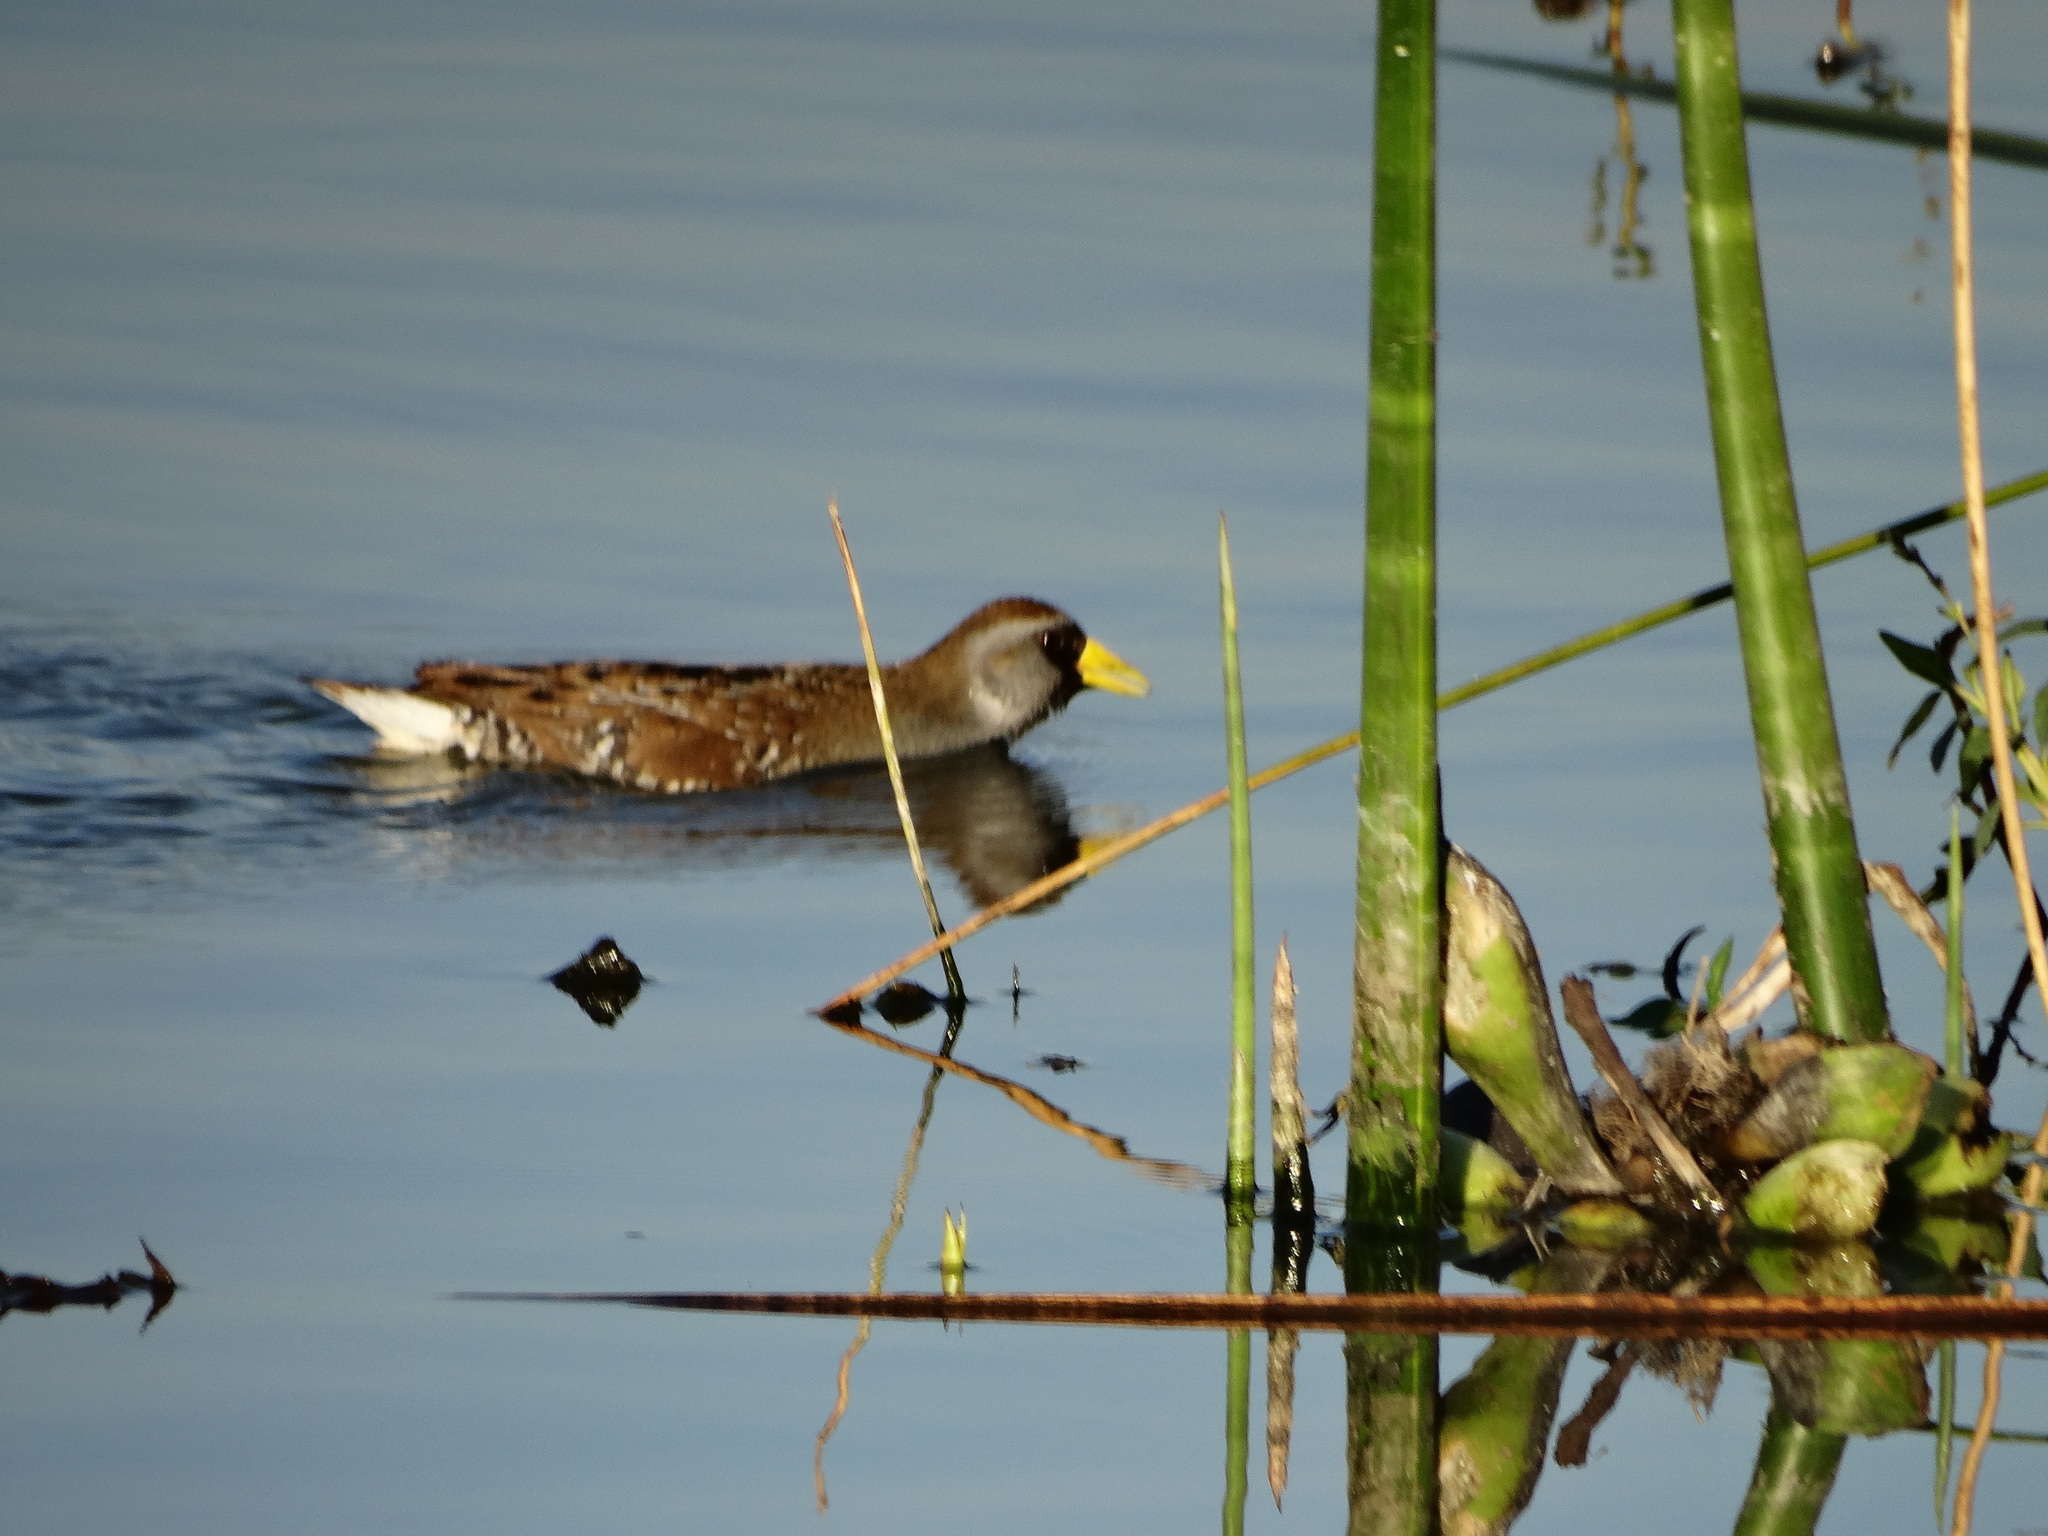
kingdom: Animalia
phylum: Chordata
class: Aves
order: Gruiformes
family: Rallidae
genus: Porzana
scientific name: Porzana carolina
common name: Sora
